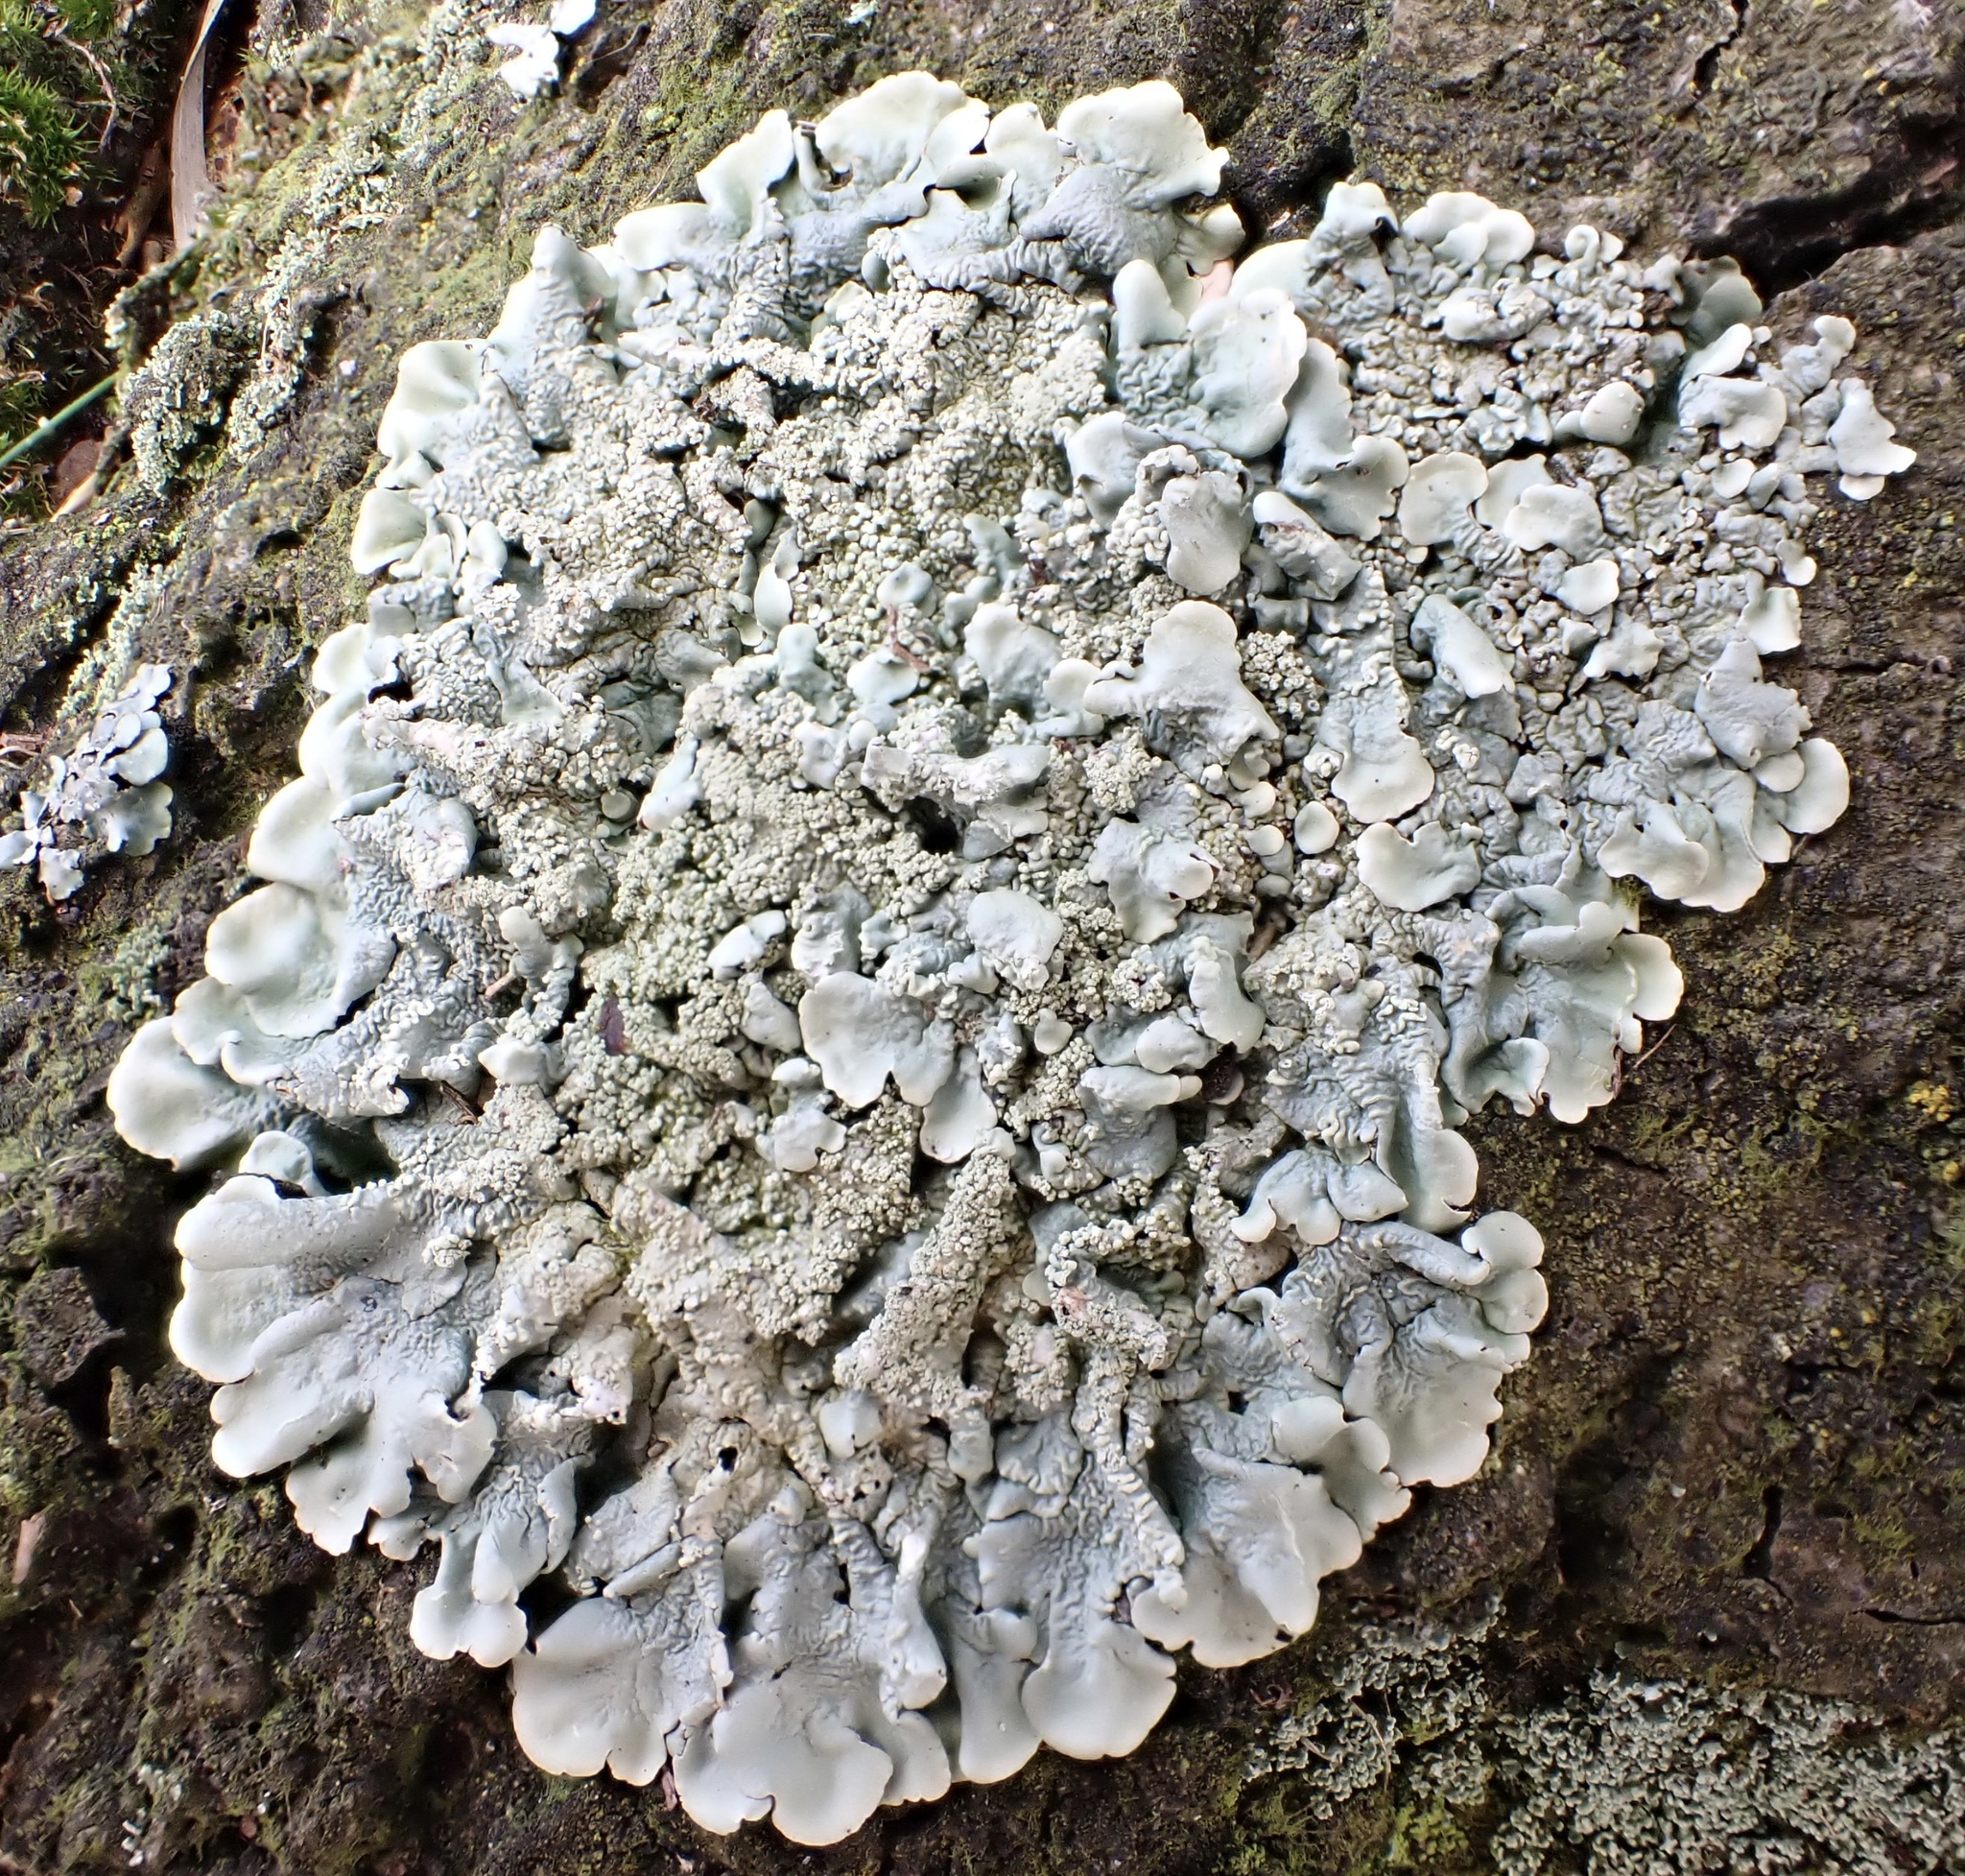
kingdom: Fungi
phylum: Ascomycota
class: Lecanoromycetes
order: Lecanorales
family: Parmeliaceae
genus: Flavoparmelia
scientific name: Flavoparmelia caperata
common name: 40-mile per hour lichen
